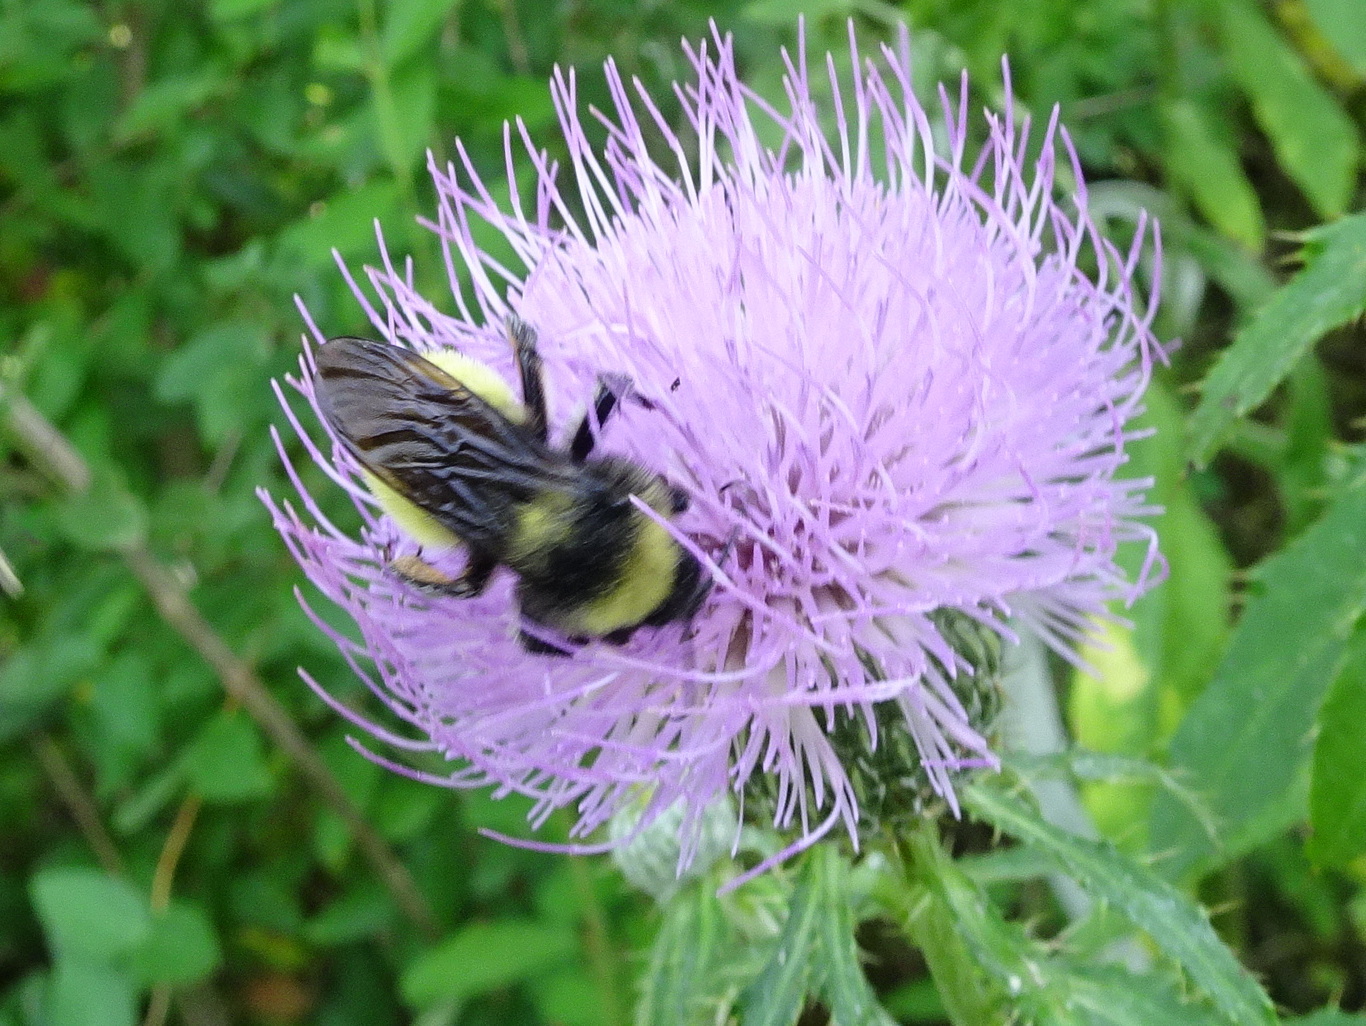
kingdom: Animalia
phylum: Arthropoda
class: Insecta
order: Hymenoptera
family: Apidae
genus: Bombus
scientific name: Bombus pensylvanicus
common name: Bumble bee
